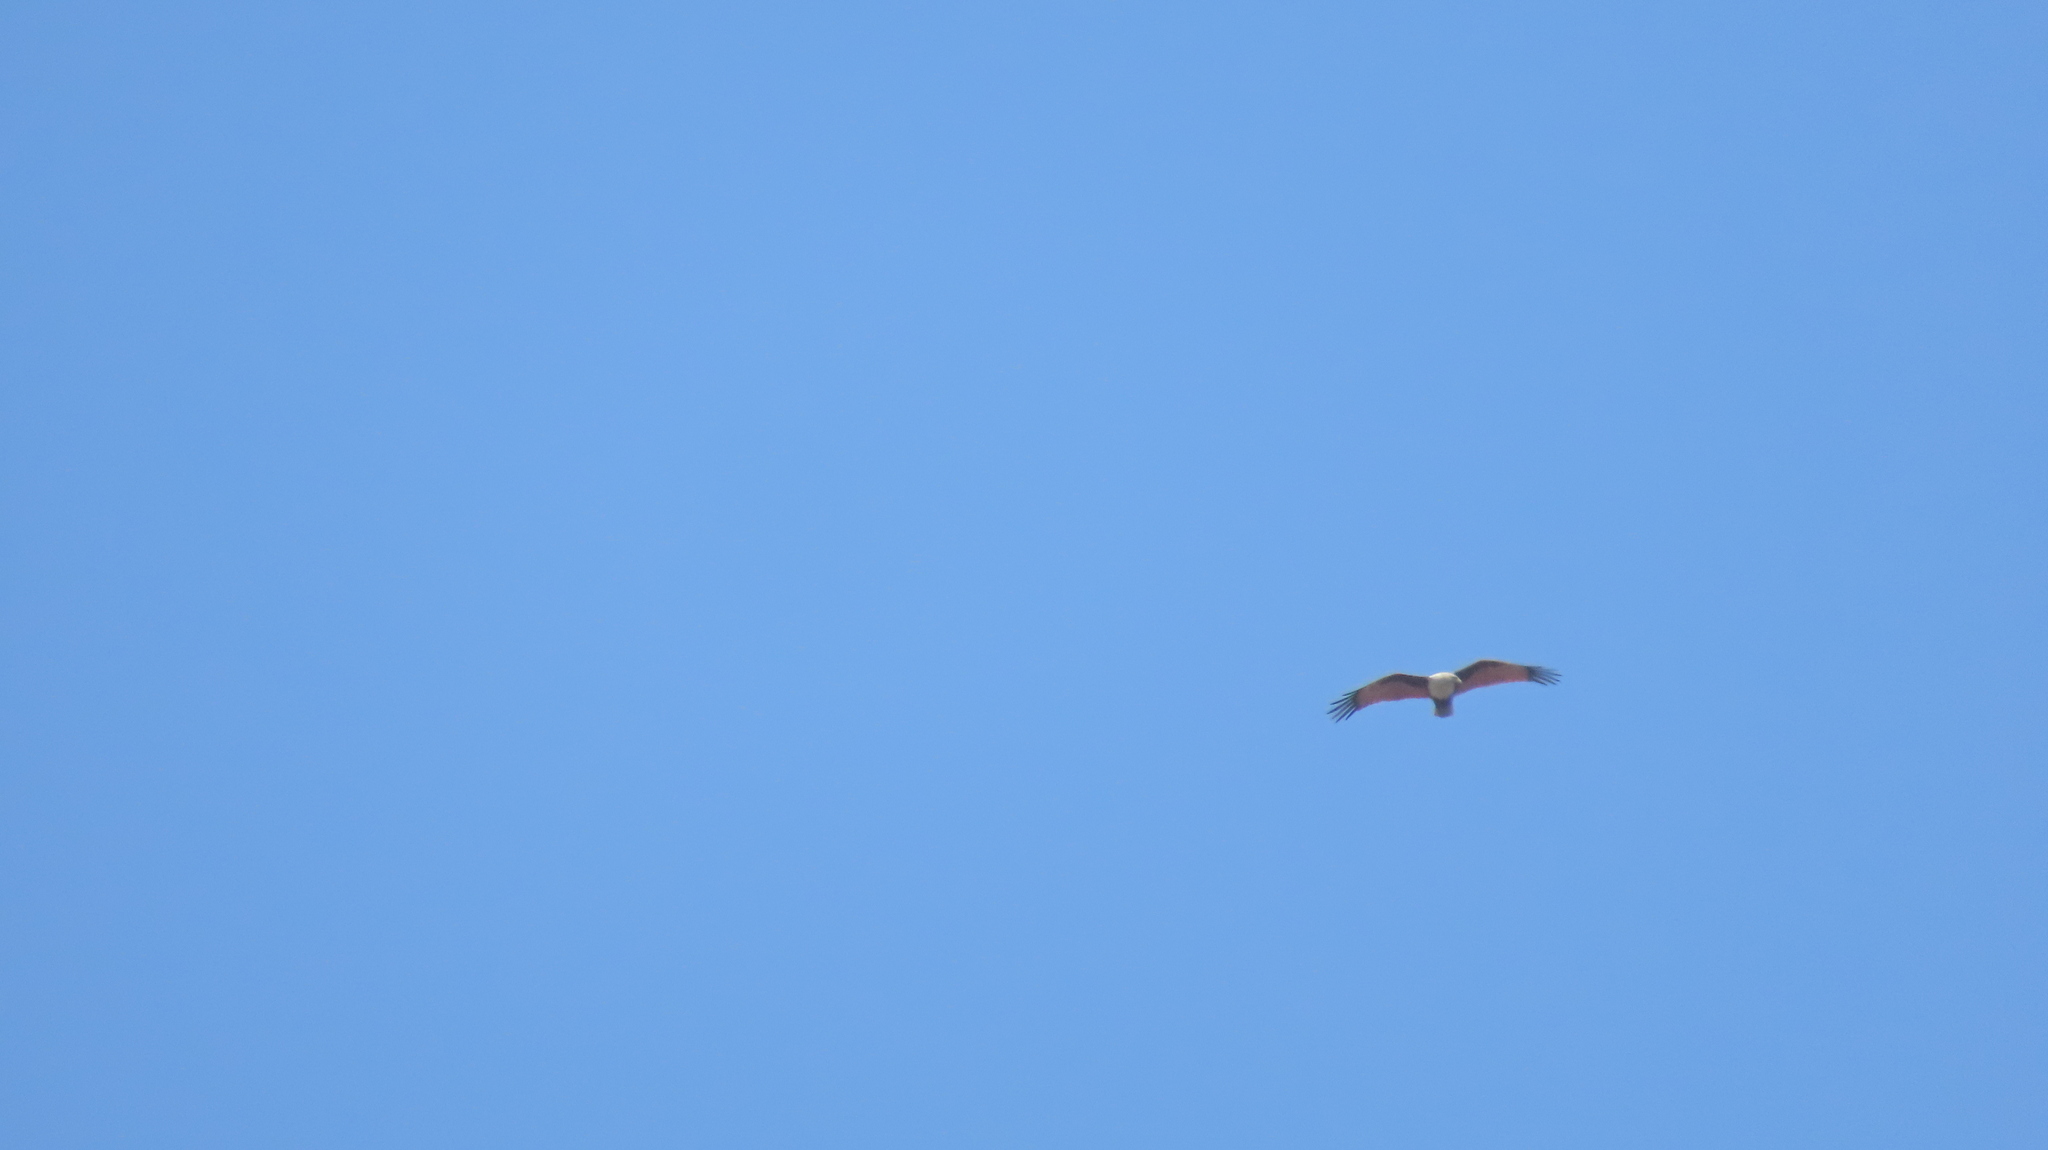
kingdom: Animalia
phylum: Chordata
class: Aves
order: Accipitriformes
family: Accipitridae
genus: Haliastur
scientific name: Haliastur indus
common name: Brahminy kite
